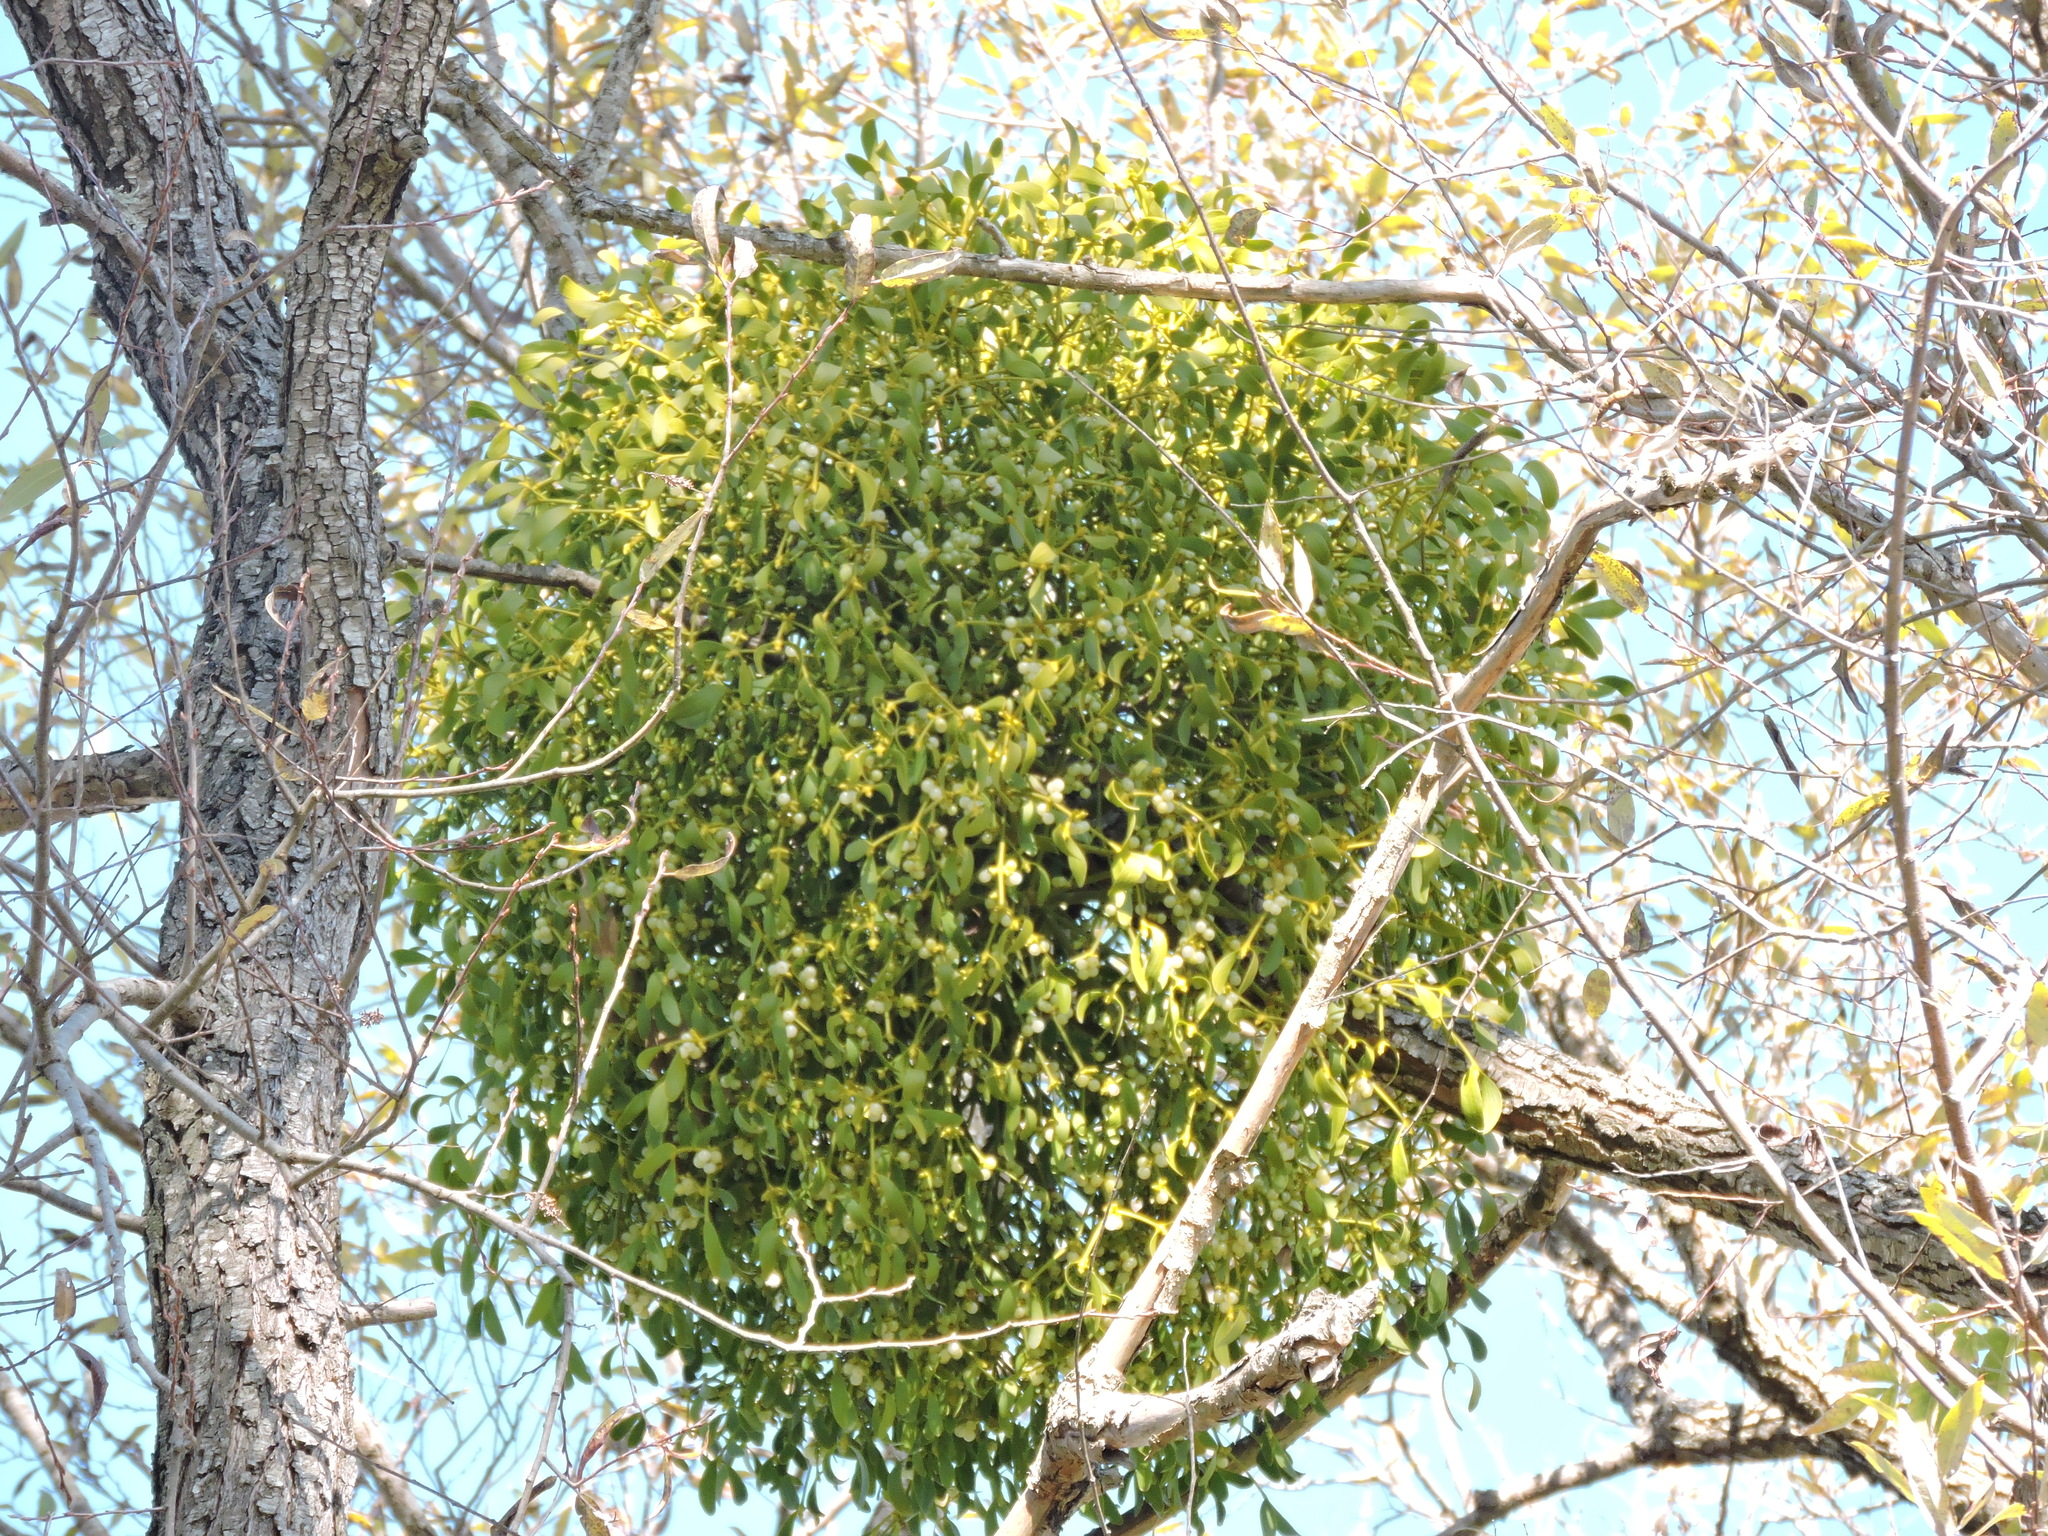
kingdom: Plantae
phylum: Tracheophyta
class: Magnoliopsida
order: Santalales
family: Viscaceae
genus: Viscum
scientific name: Viscum album
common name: Mistletoe
